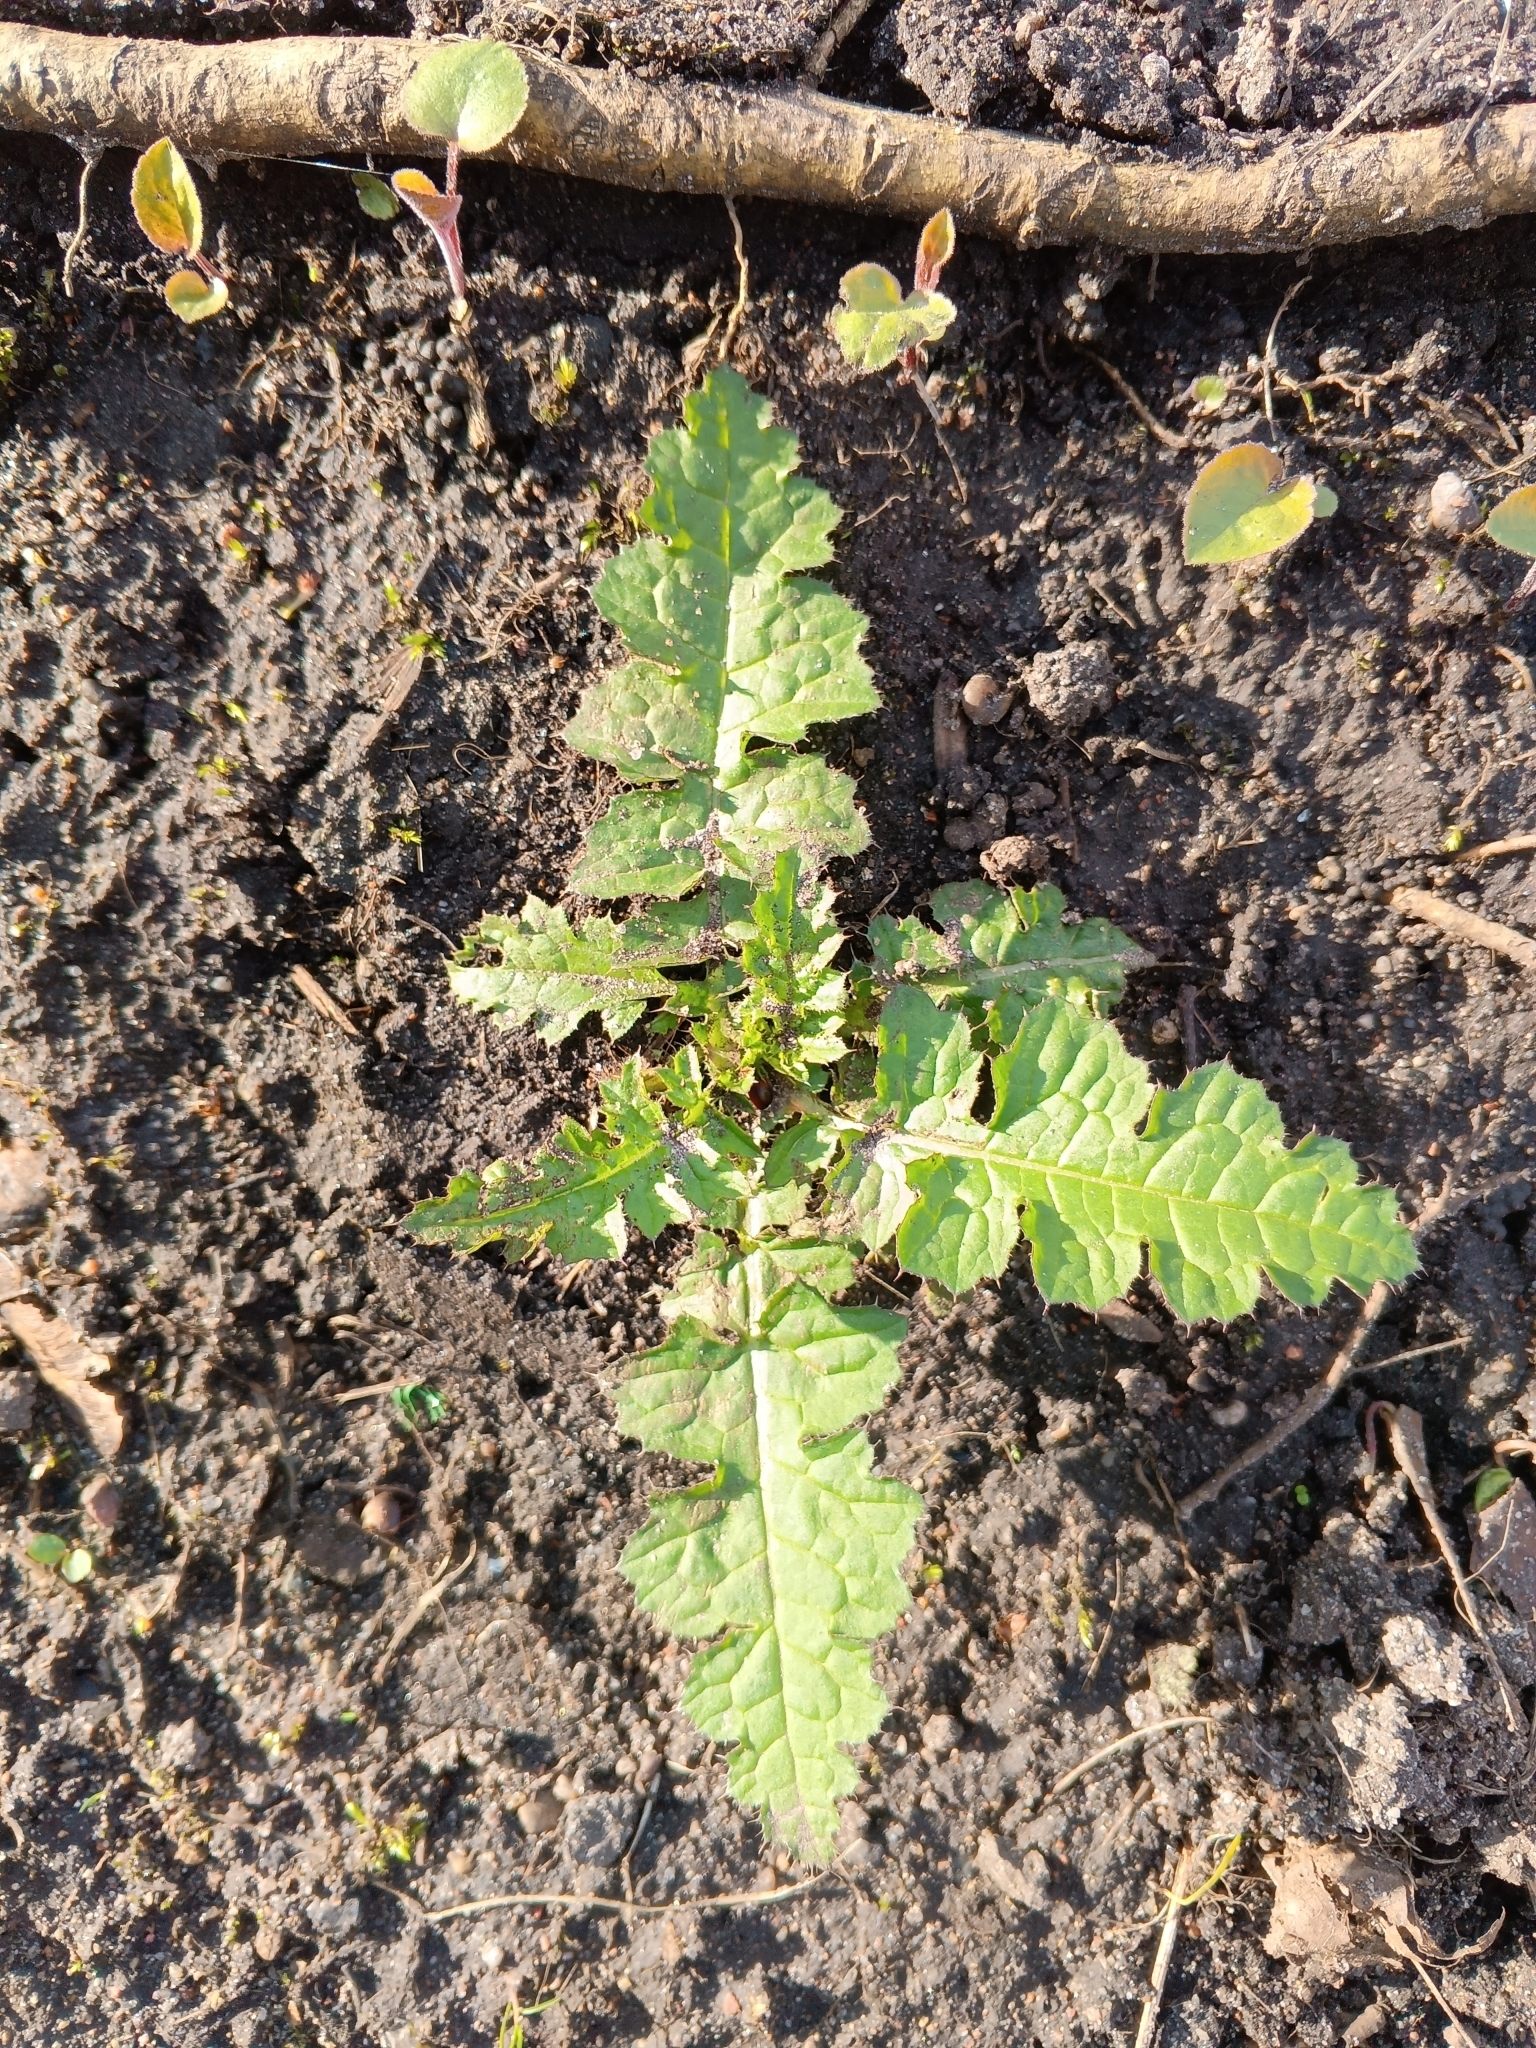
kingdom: Plantae
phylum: Tracheophyta
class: Magnoliopsida
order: Asterales
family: Asteraceae
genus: Carduus
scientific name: Carduus crispus
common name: Welted thistle
